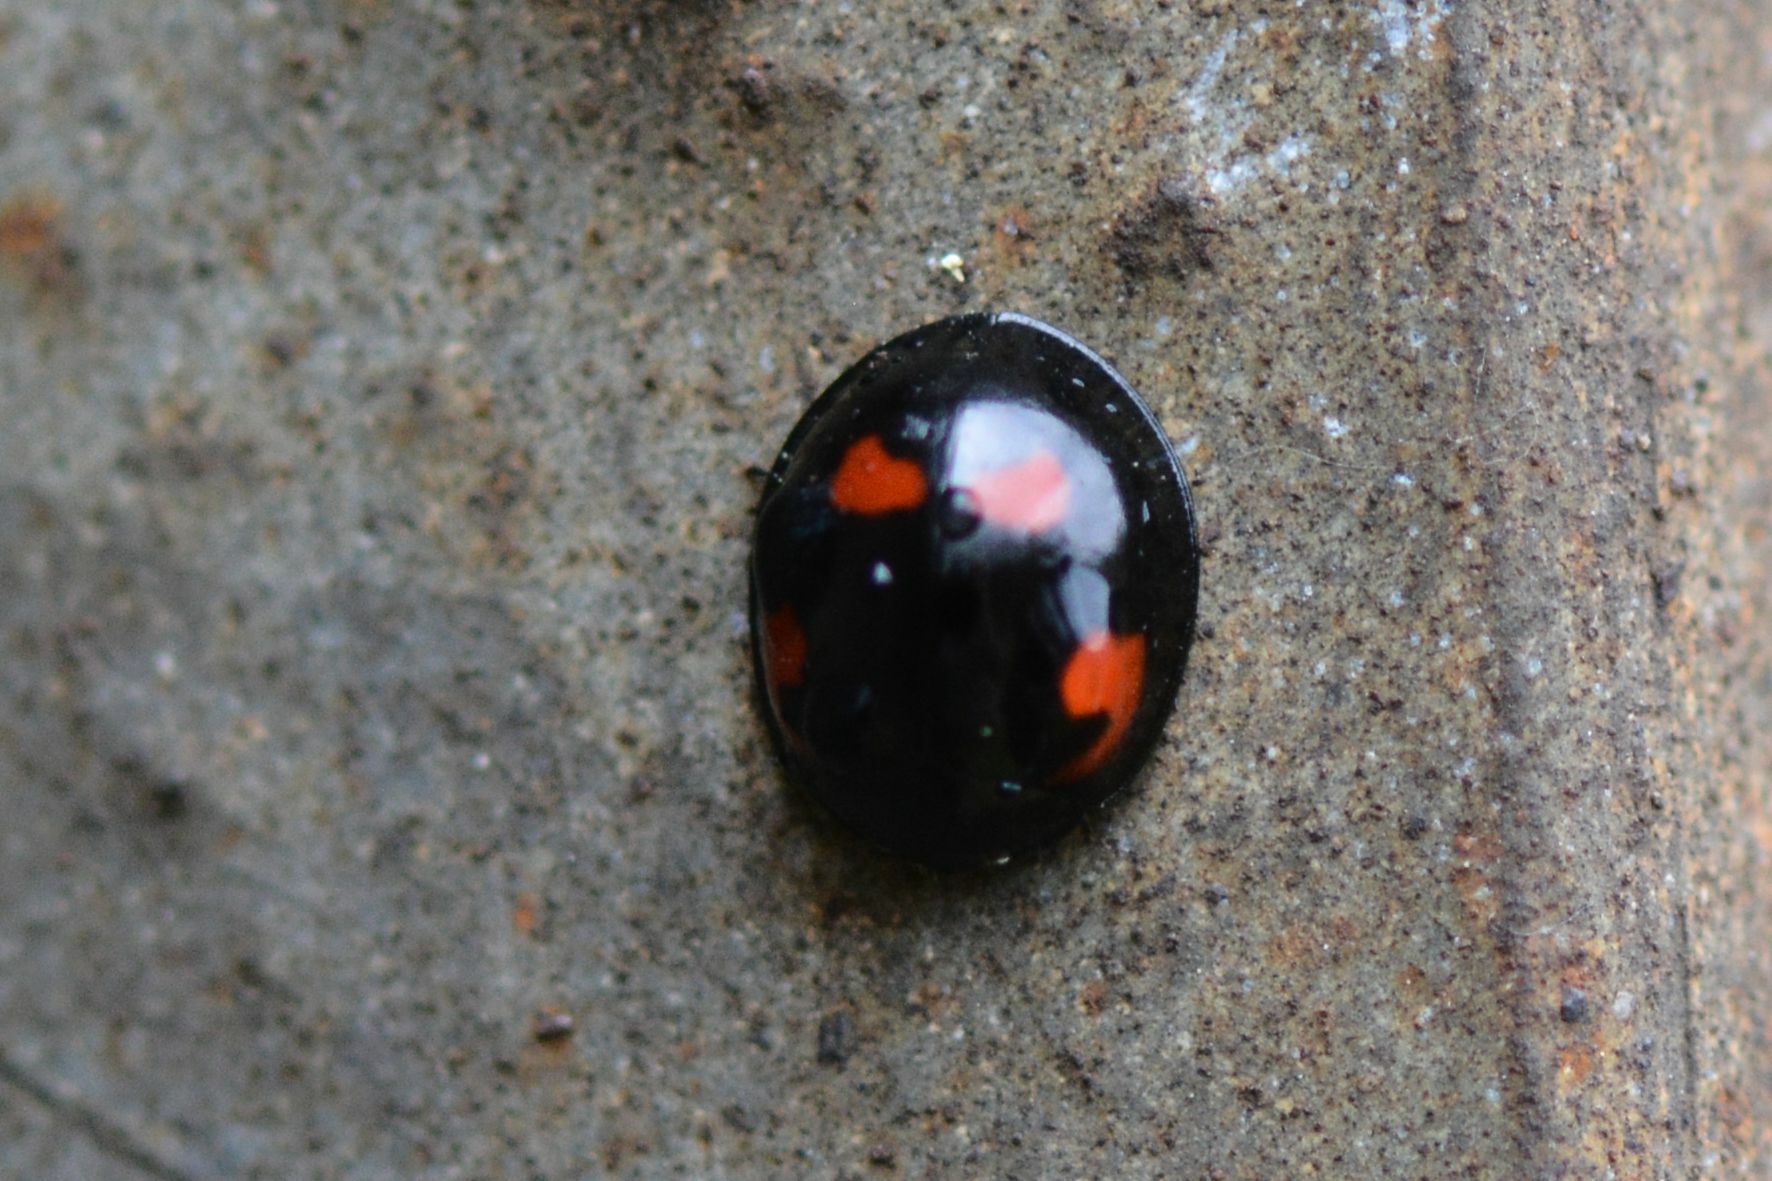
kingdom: Animalia
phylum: Arthropoda
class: Insecta
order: Coleoptera
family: Coccinellidae
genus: Brumus
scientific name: Brumus quadripustulatus
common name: Ladybird beetle
